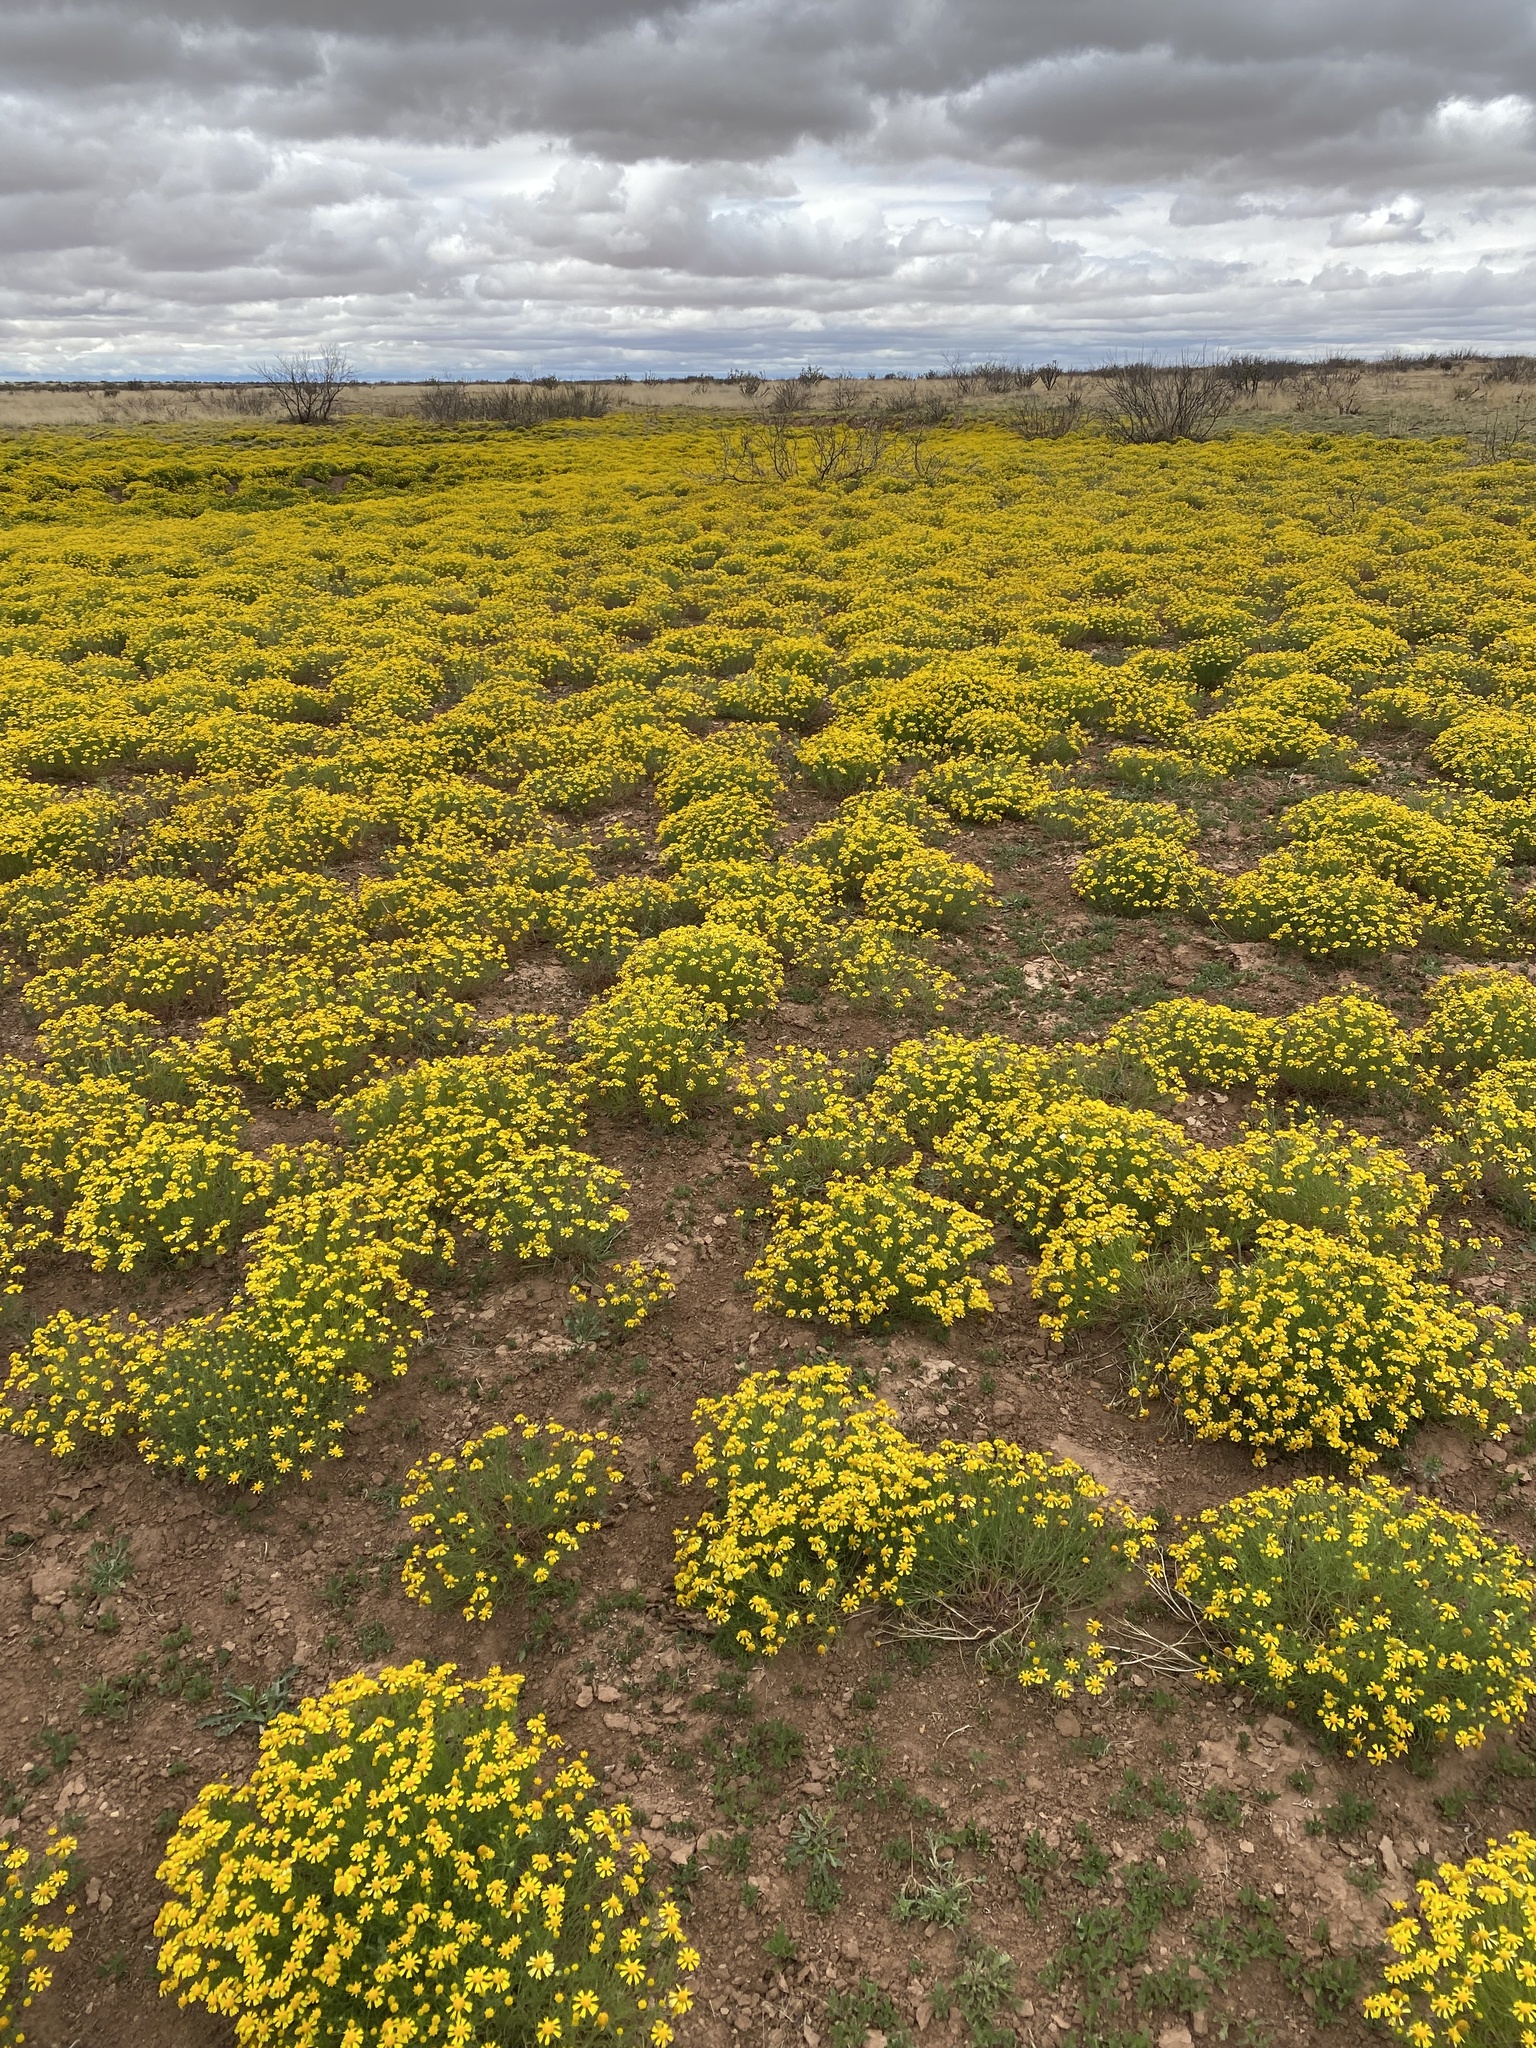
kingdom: Plantae
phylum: Tracheophyta
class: Magnoliopsida
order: Asterales
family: Asteraceae
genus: Hymenoxys
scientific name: Hymenoxys odorata
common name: Bitter rubberweed
